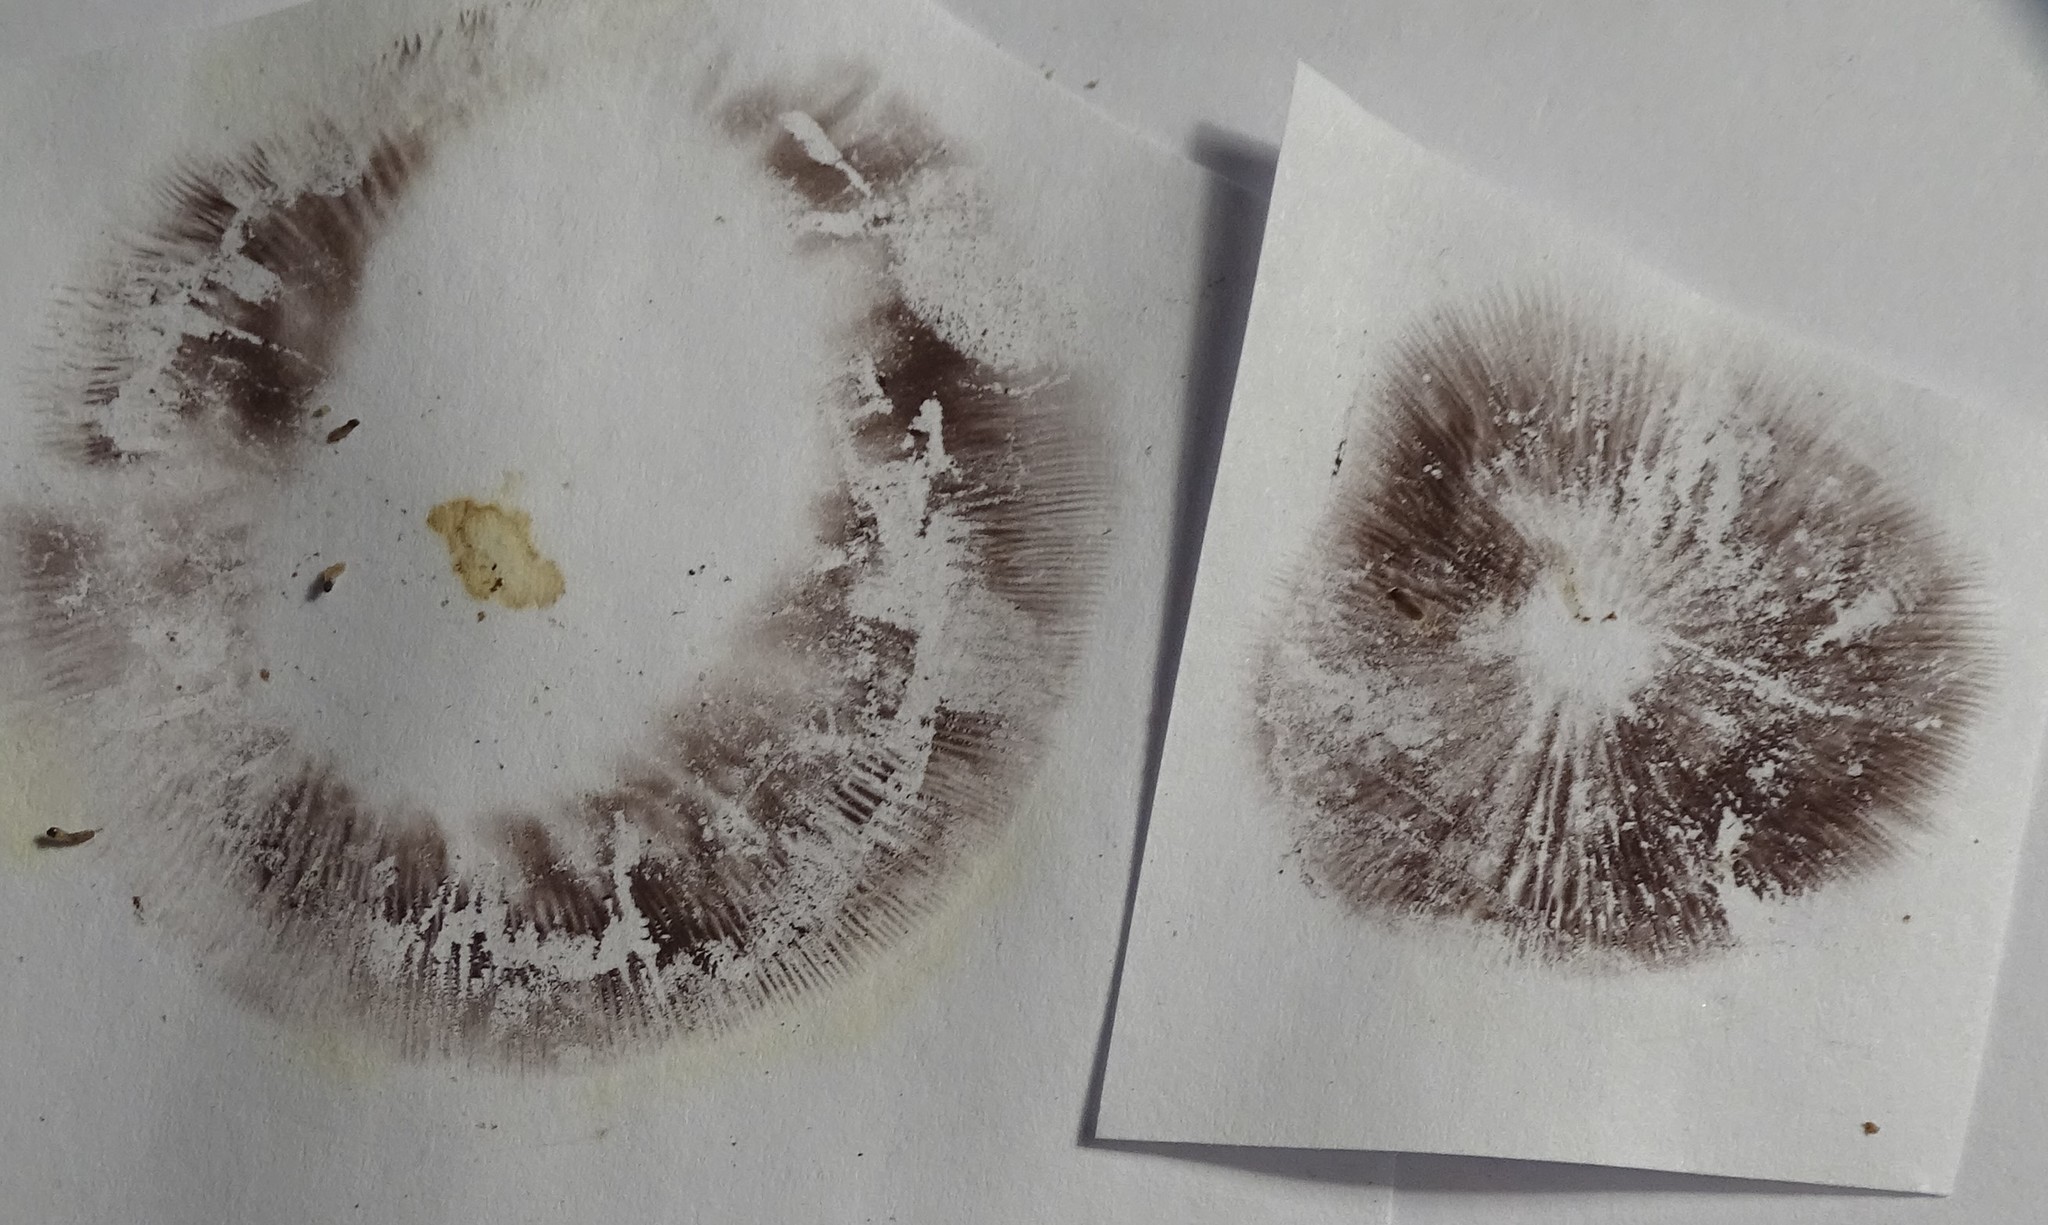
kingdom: Fungi
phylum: Basidiomycota
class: Agaricomycetes
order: Agaricales
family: Strophariaceae
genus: Hypholoma
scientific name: Hypholoma capnoides
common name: Conifer tuft
